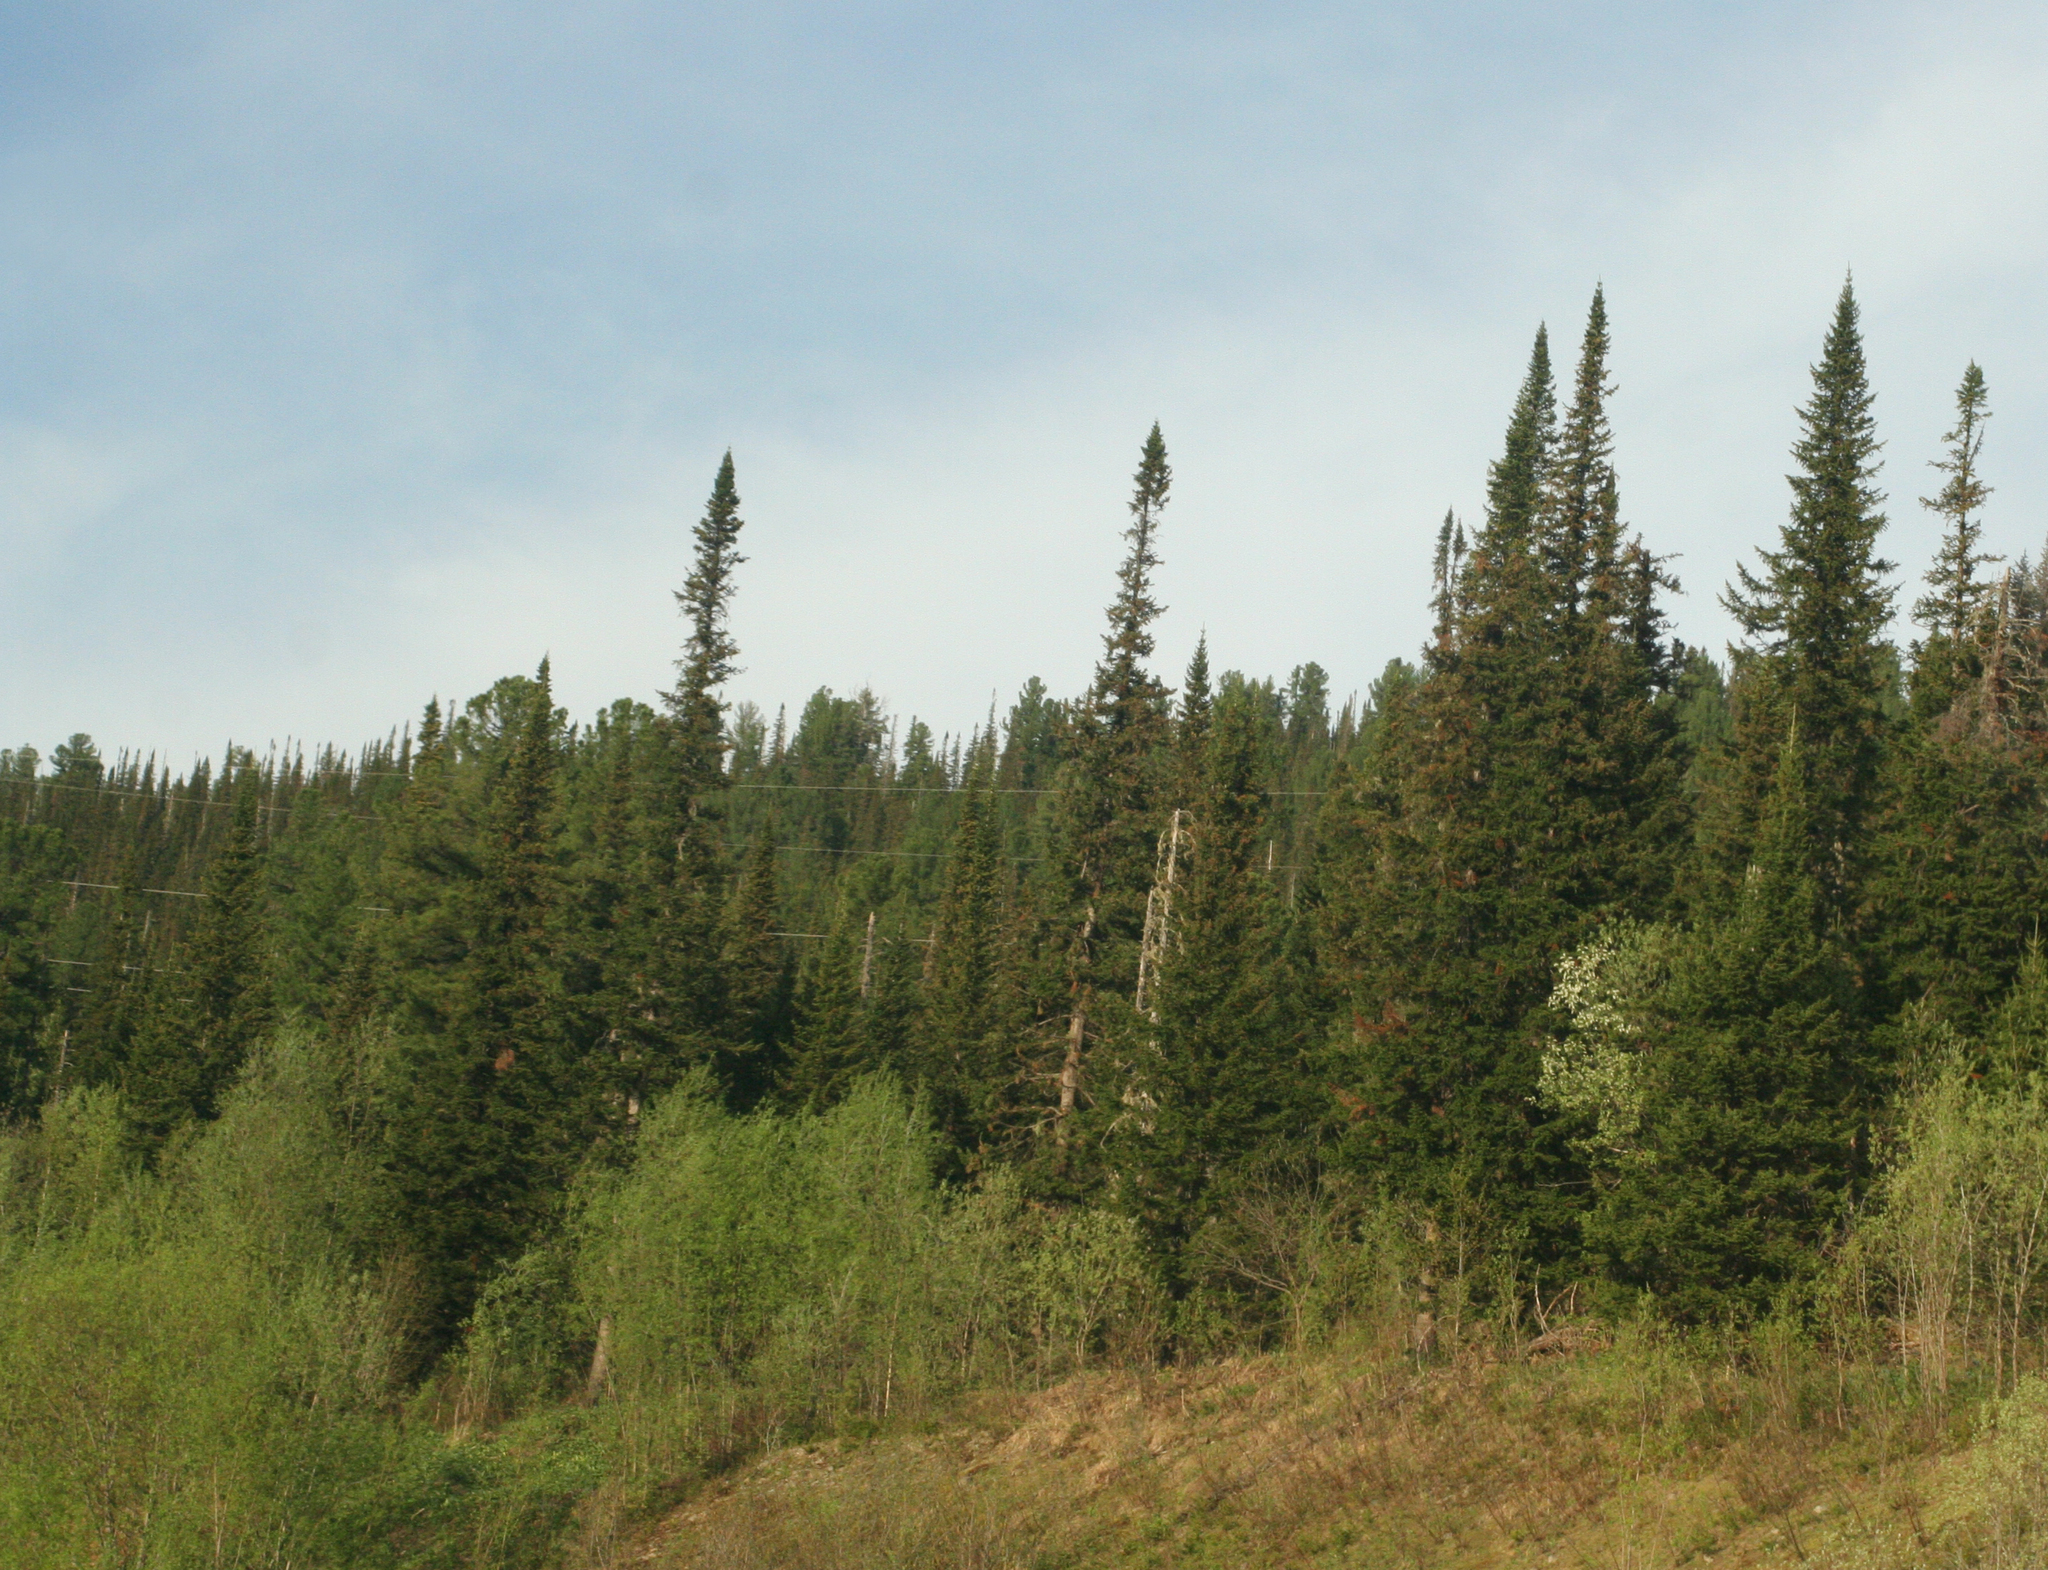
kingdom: Plantae
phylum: Tracheophyta
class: Pinopsida
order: Pinales
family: Pinaceae
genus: Abies
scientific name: Abies sibirica
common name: Siberian fir
